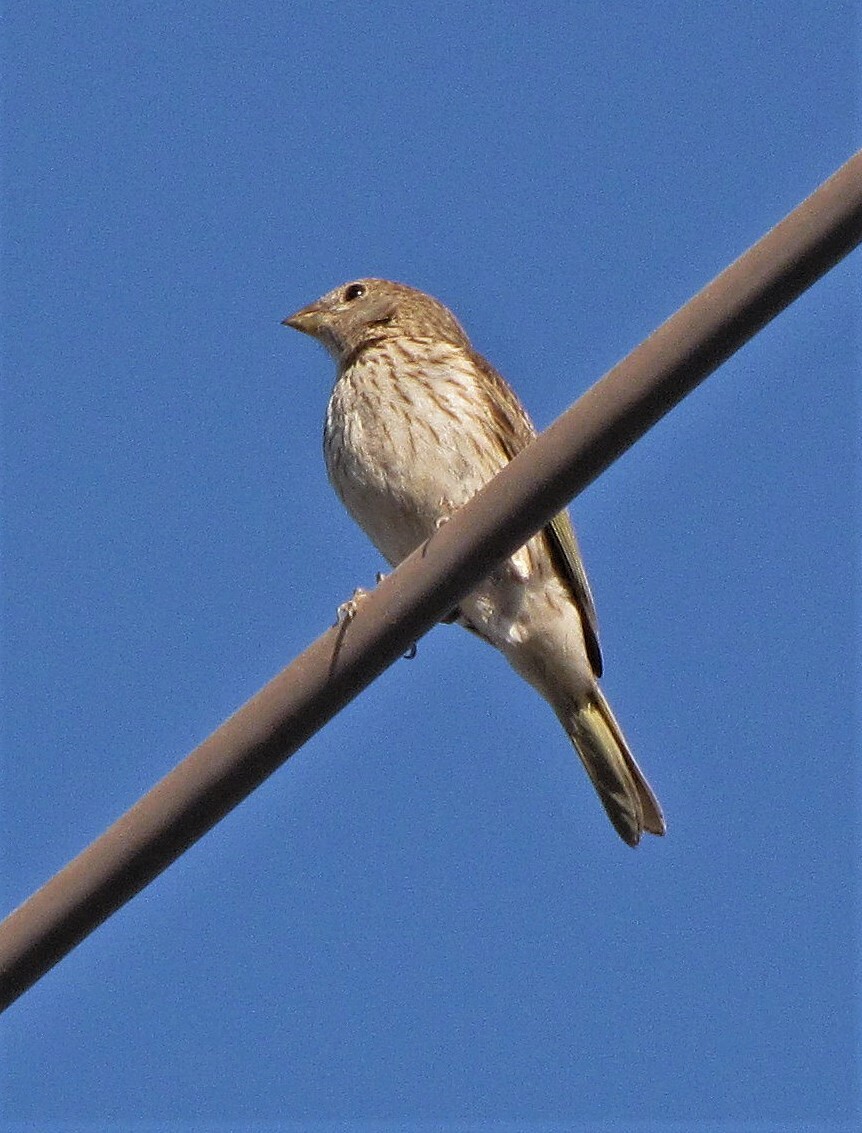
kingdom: Animalia
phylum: Chordata
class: Aves
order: Passeriformes
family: Thraupidae
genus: Sicalis
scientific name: Sicalis flaveola
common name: Saffron finch
